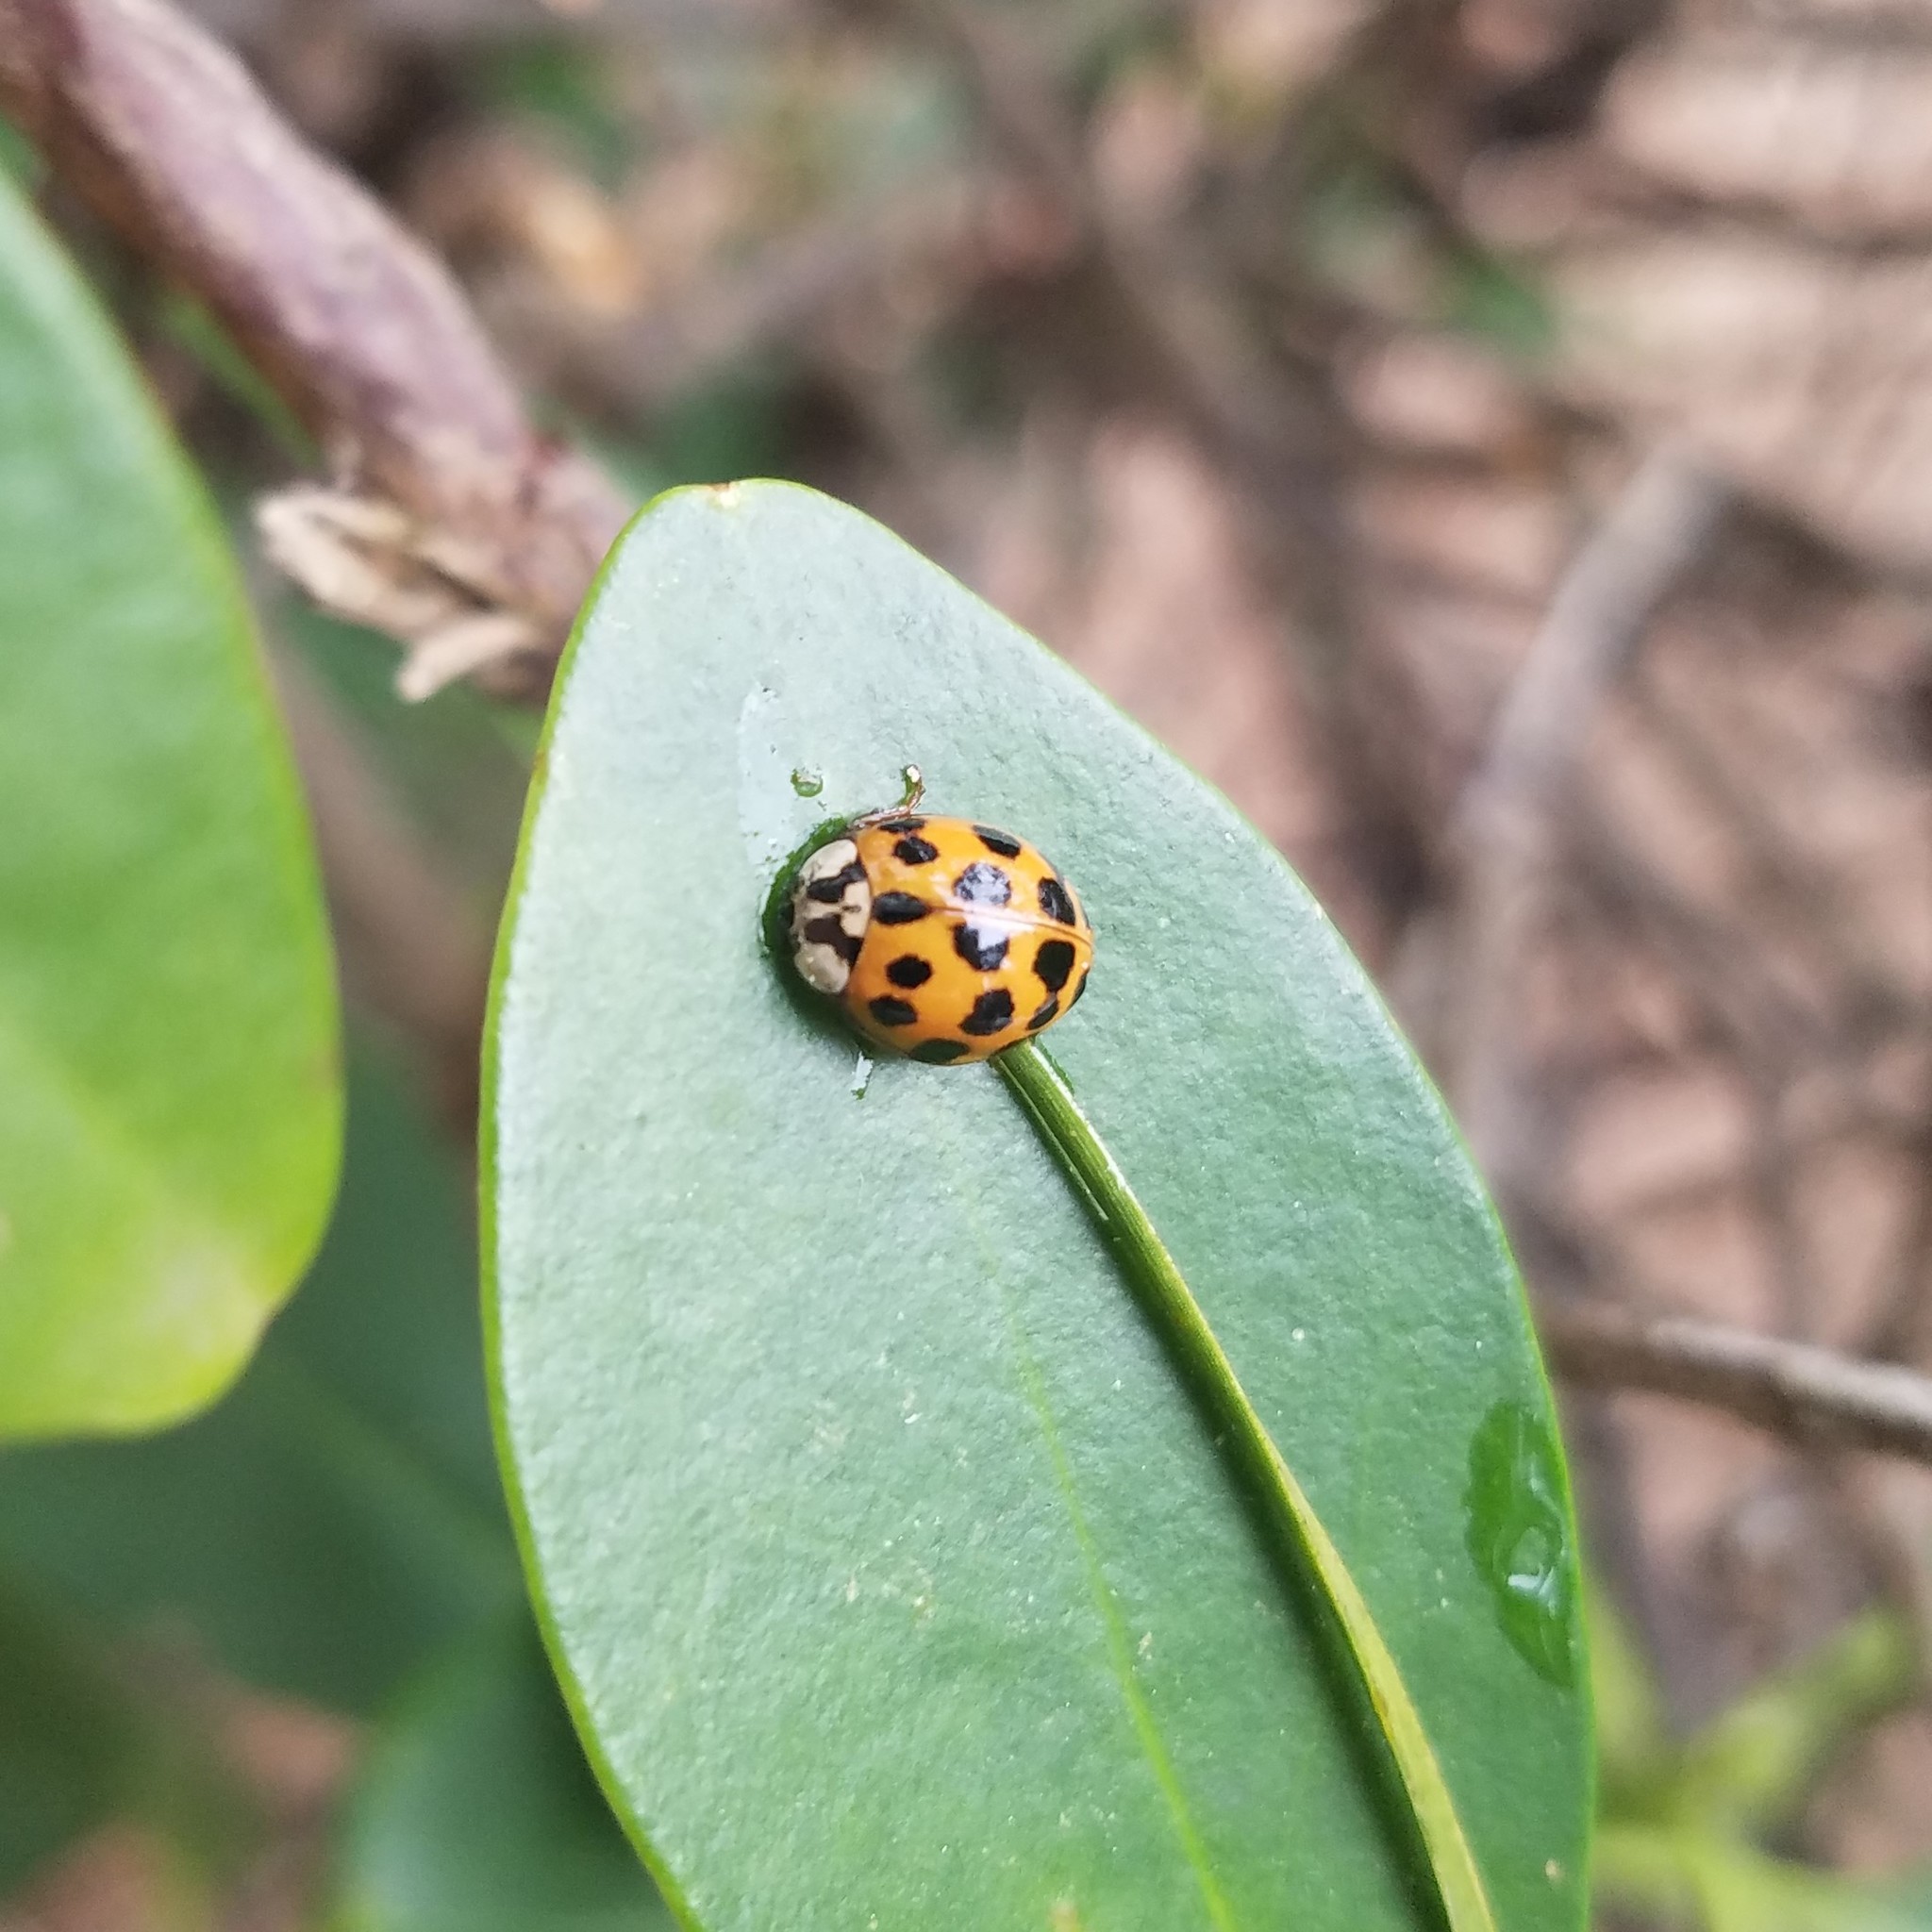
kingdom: Animalia
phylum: Arthropoda
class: Insecta
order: Coleoptera
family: Coccinellidae
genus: Harmonia
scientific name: Harmonia axyridis
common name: Harlequin ladybird
